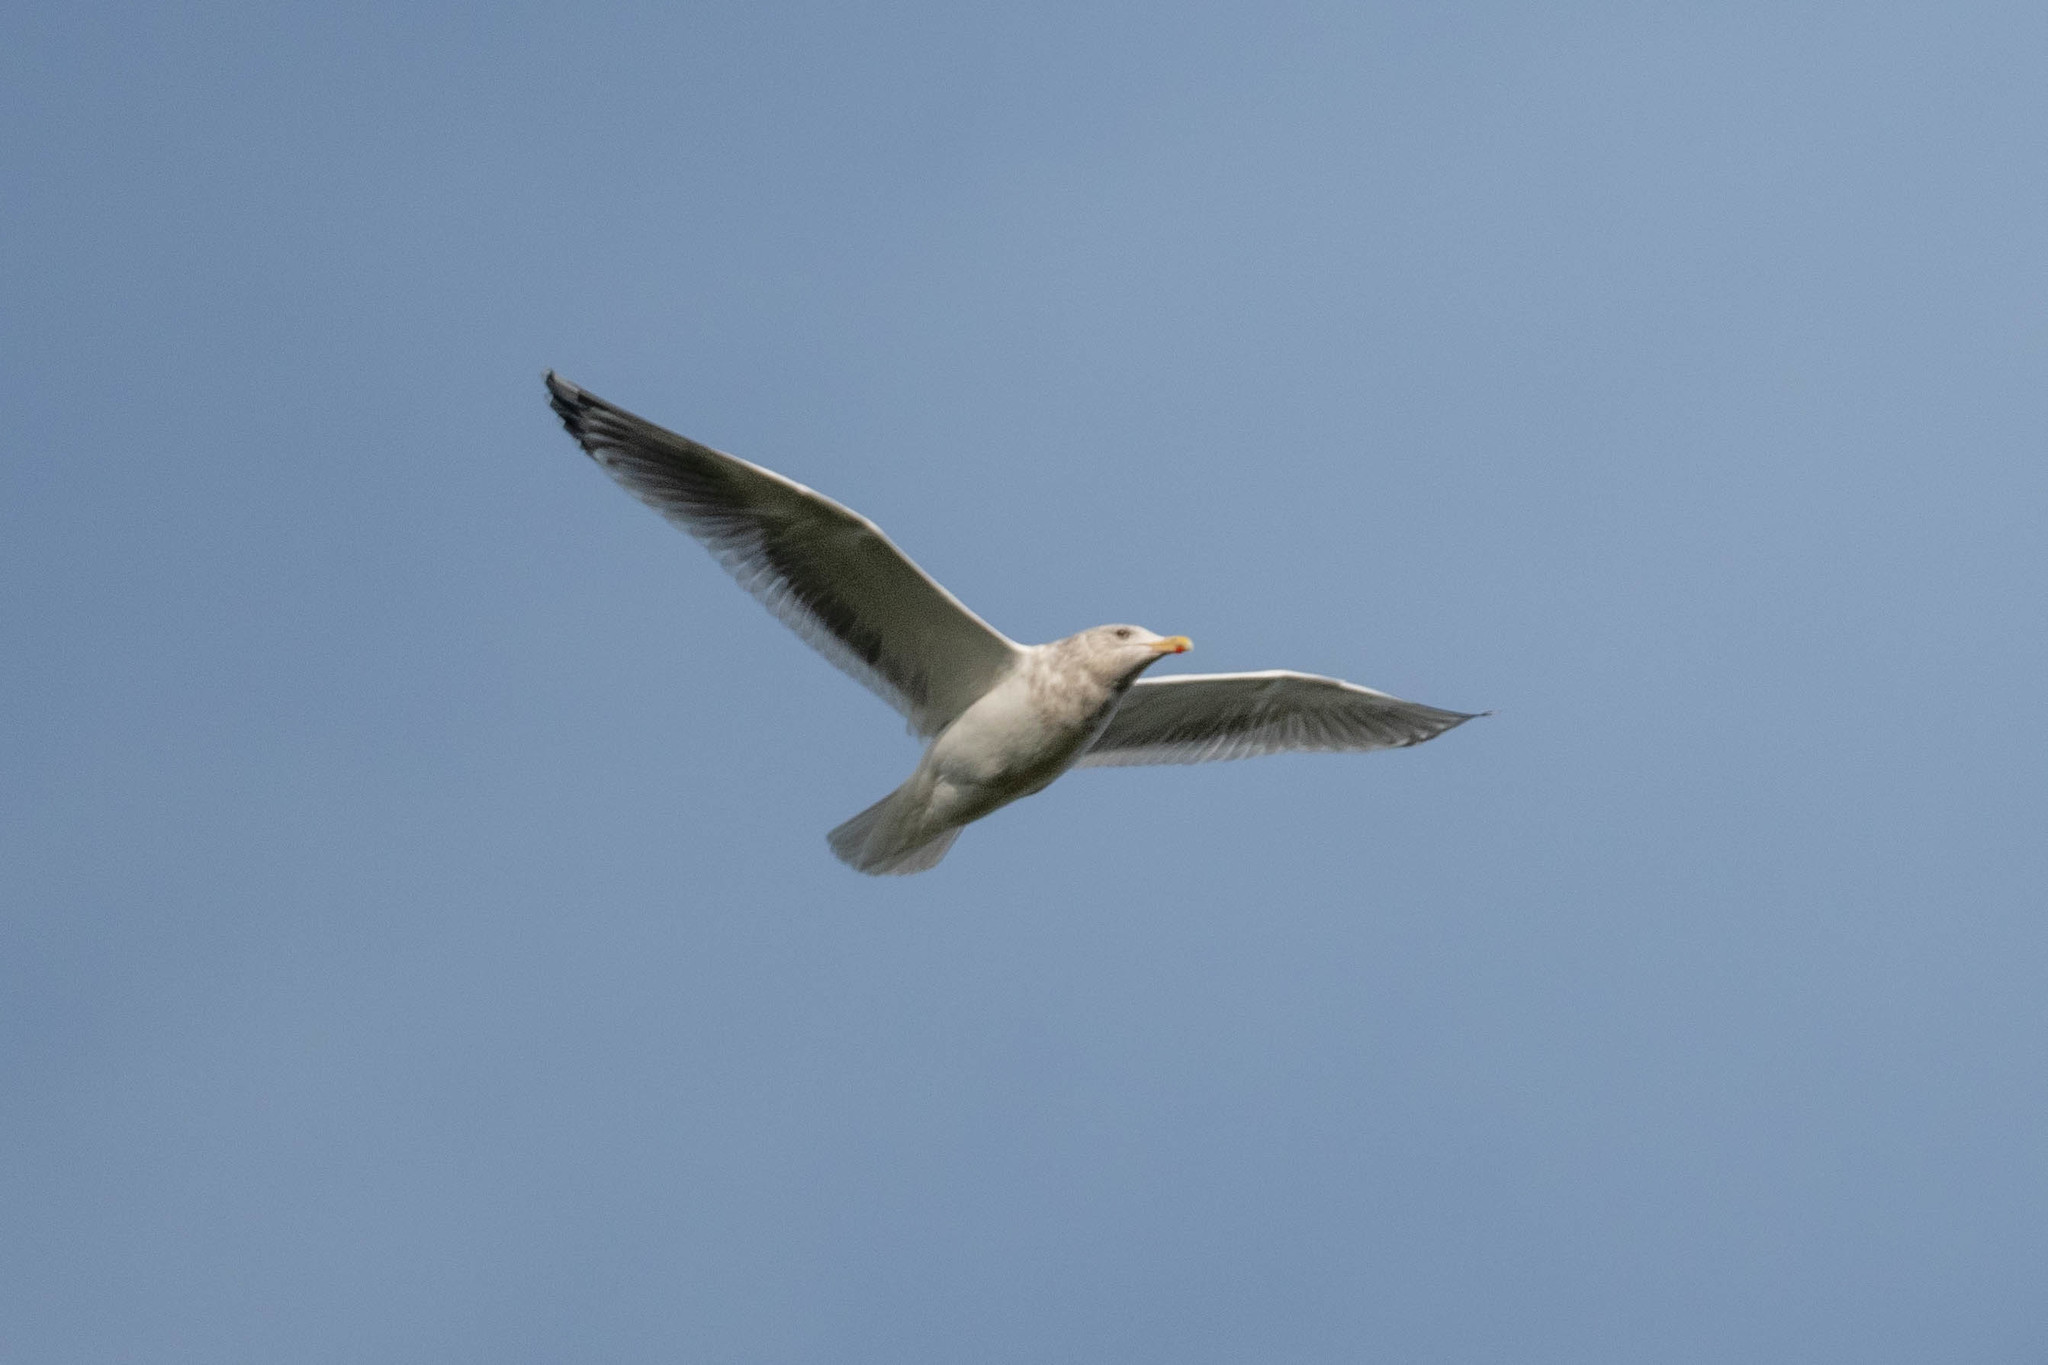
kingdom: Animalia
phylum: Chordata
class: Aves
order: Charadriiformes
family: Laridae
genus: Larus
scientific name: Larus argentatus
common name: Herring gull
